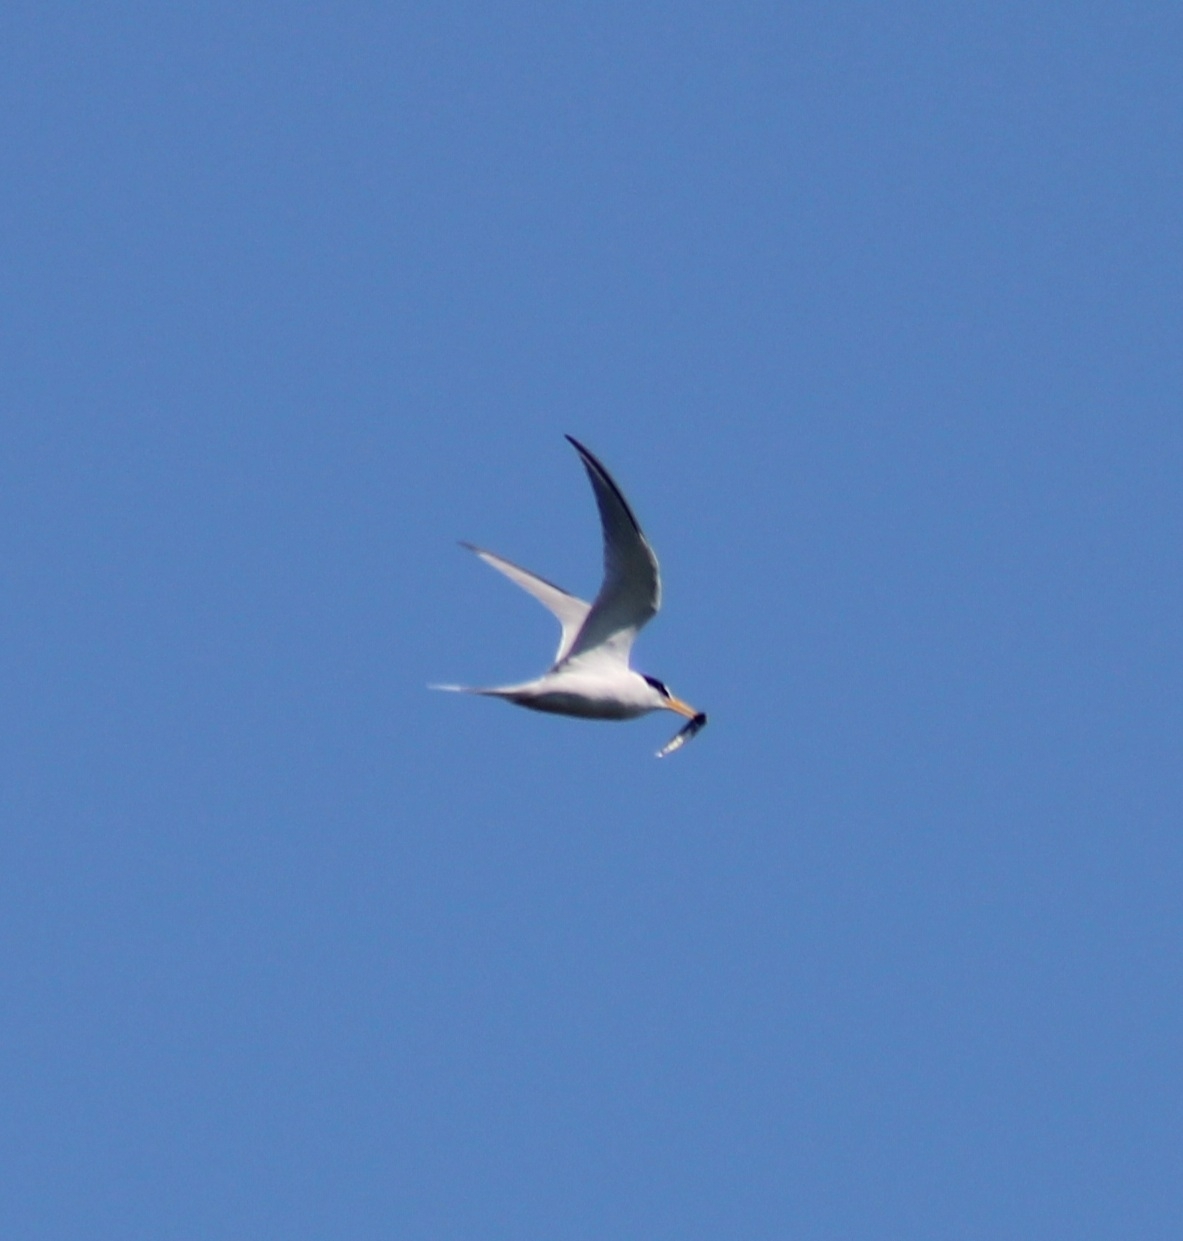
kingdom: Animalia
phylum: Chordata
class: Aves
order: Charadriiformes
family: Laridae
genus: Sternula
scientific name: Sternula antillarum
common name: Least tern
